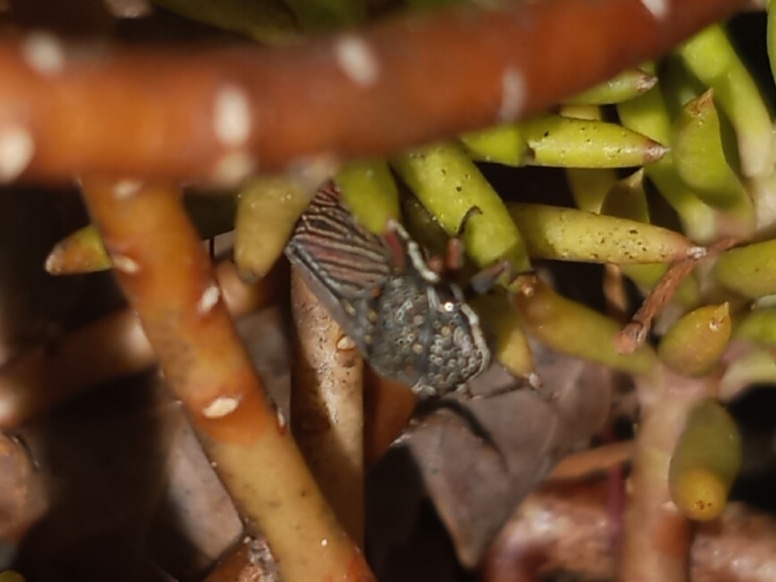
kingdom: Animalia
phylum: Arthropoda
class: Insecta
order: Hemiptera
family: Cicadellidae
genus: Cuerna
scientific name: Cuerna costalis
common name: Lateral-lined sharpshooter
